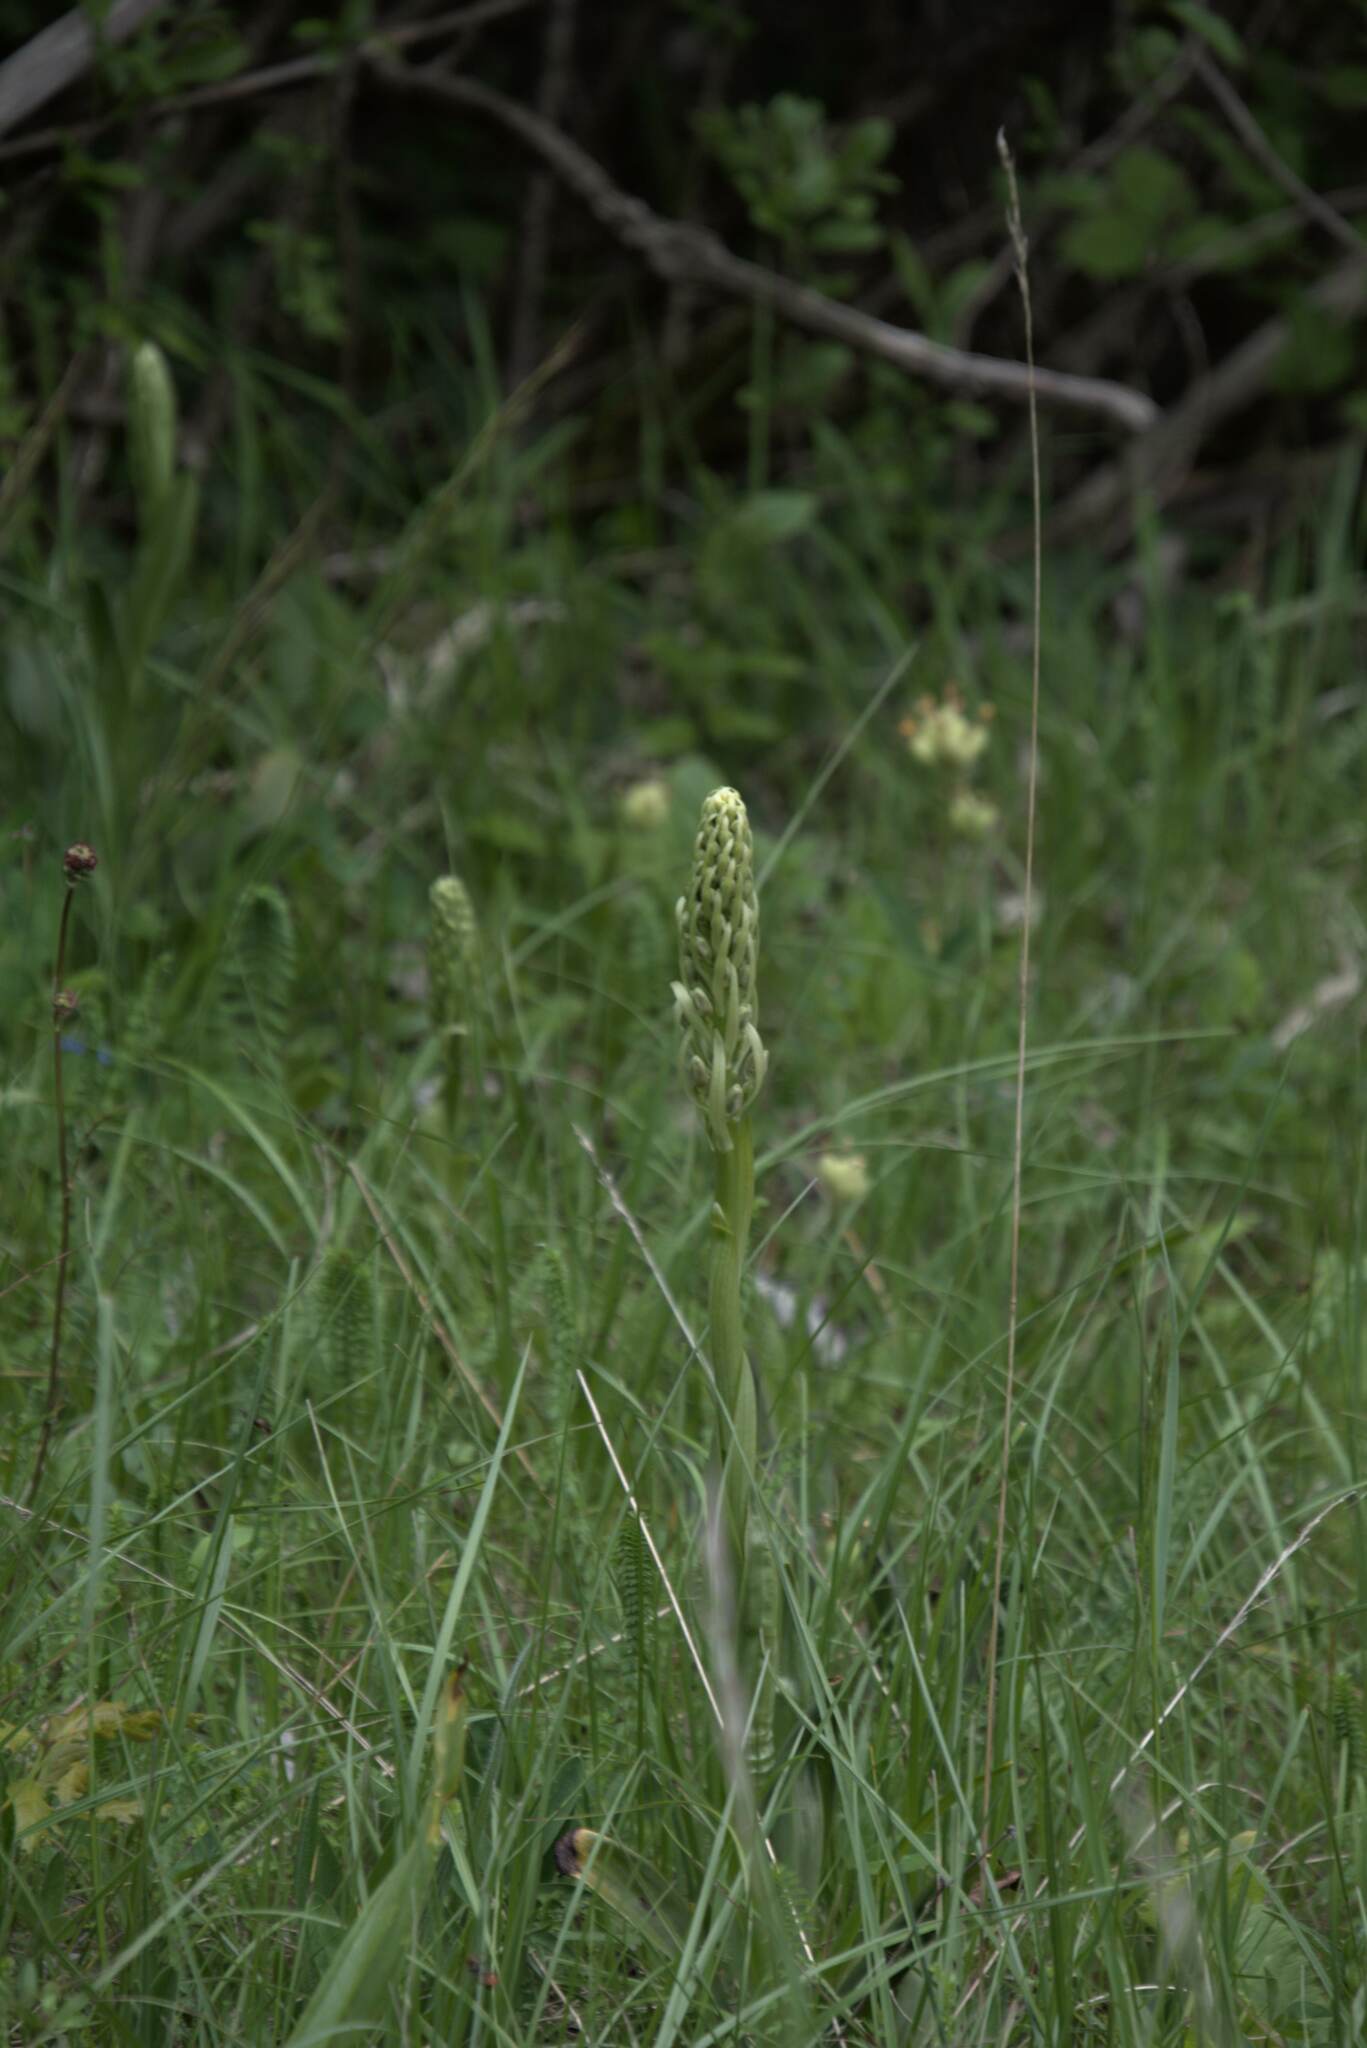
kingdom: Plantae
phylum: Tracheophyta
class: Liliopsida
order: Asparagales
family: Orchidaceae
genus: Himantoglossum
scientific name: Himantoglossum hircinum
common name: Lizard orchid
